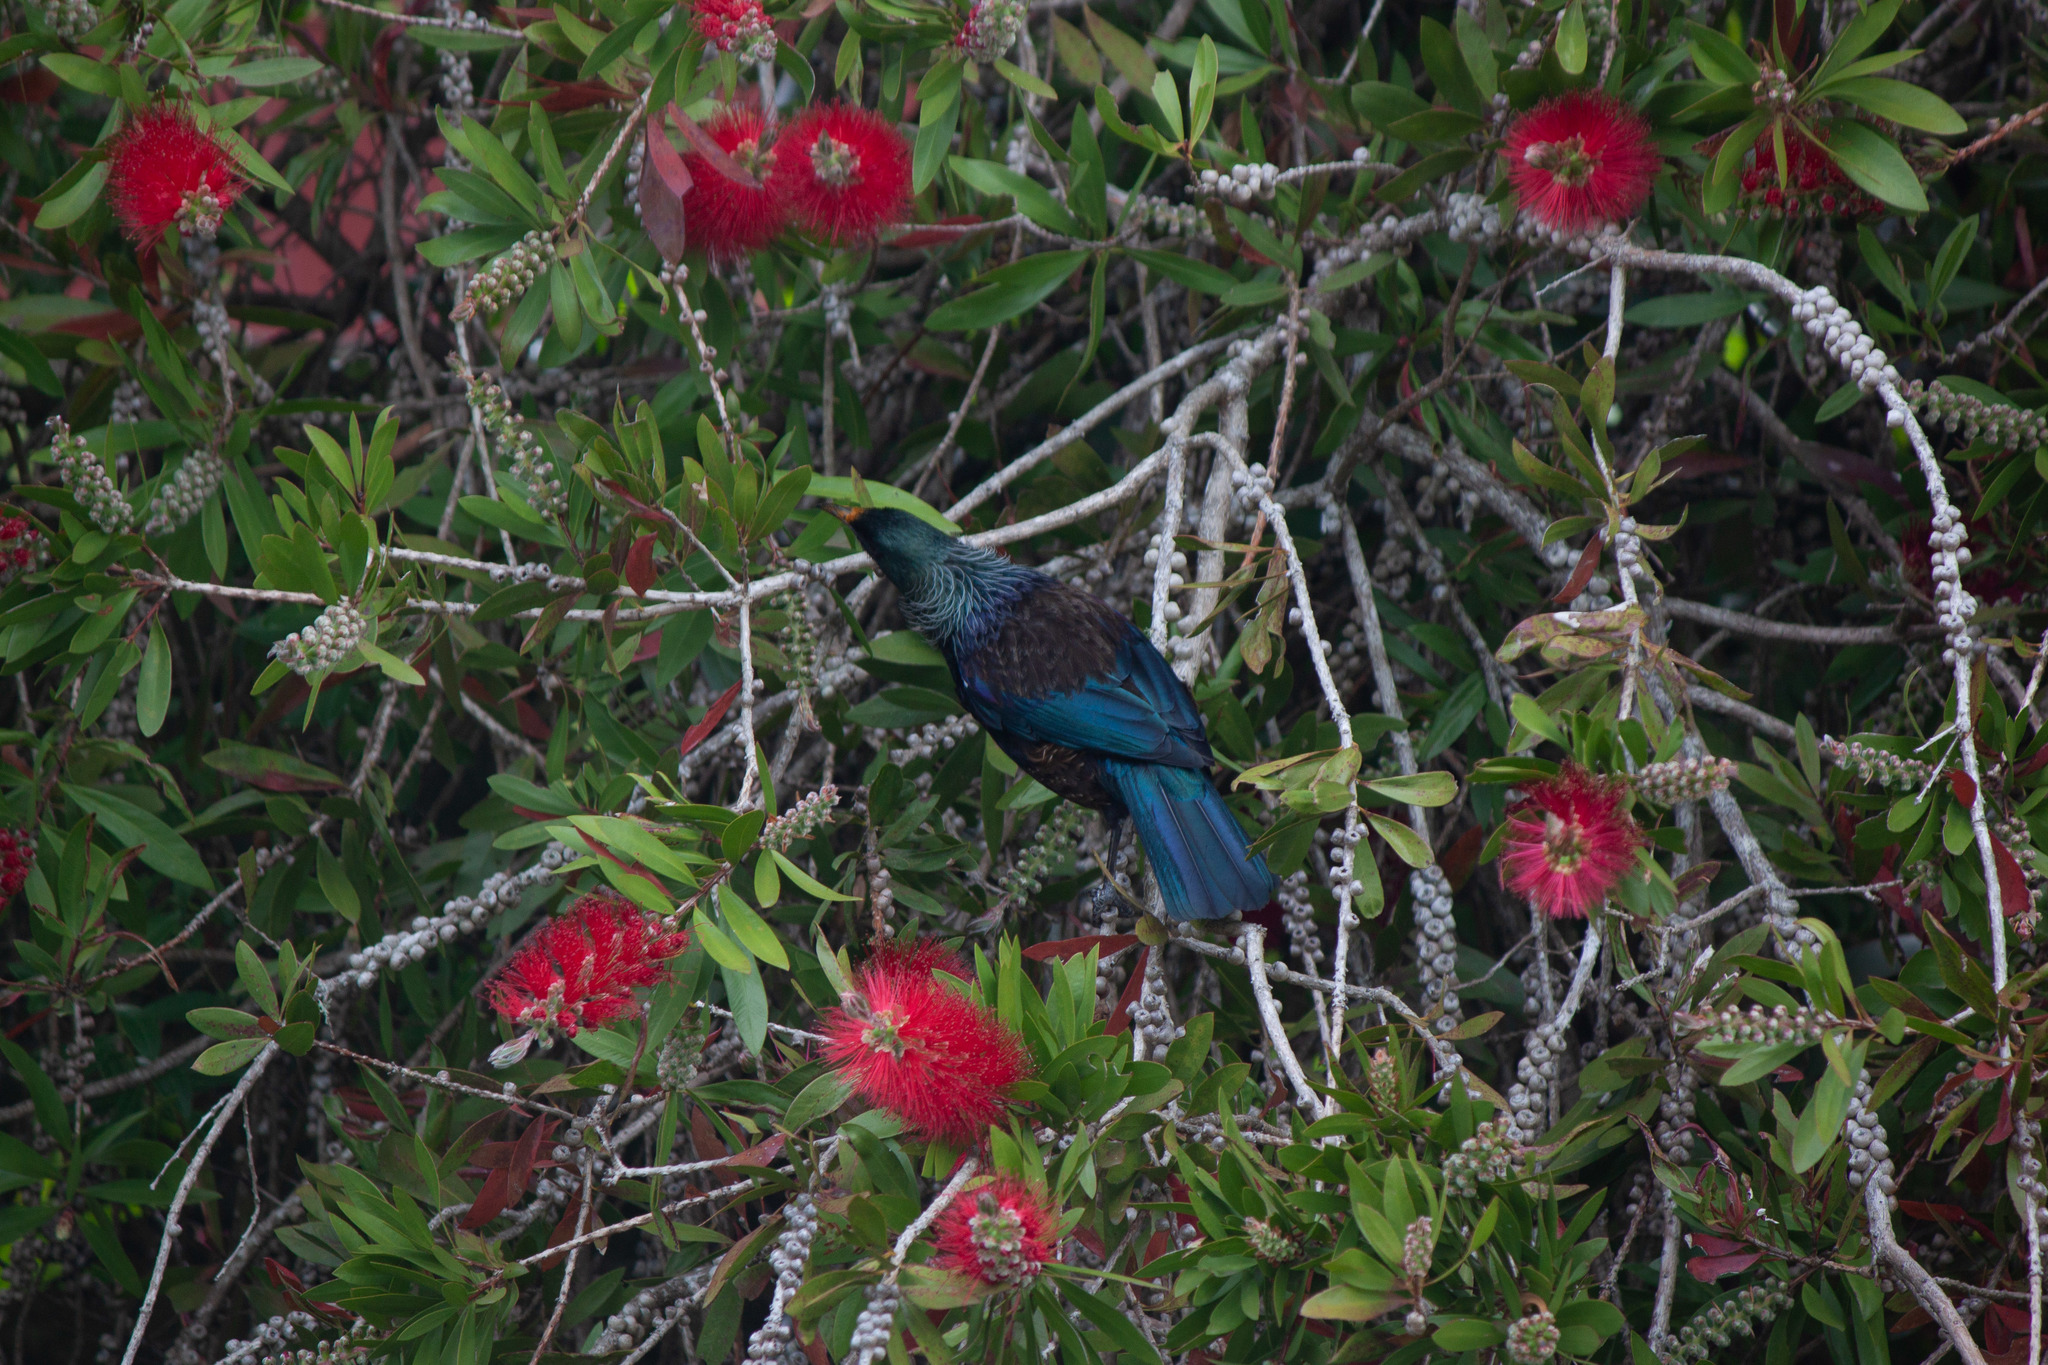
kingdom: Animalia
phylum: Chordata
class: Aves
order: Passeriformes
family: Meliphagidae
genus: Prosthemadera
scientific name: Prosthemadera novaeseelandiae
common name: Tui
